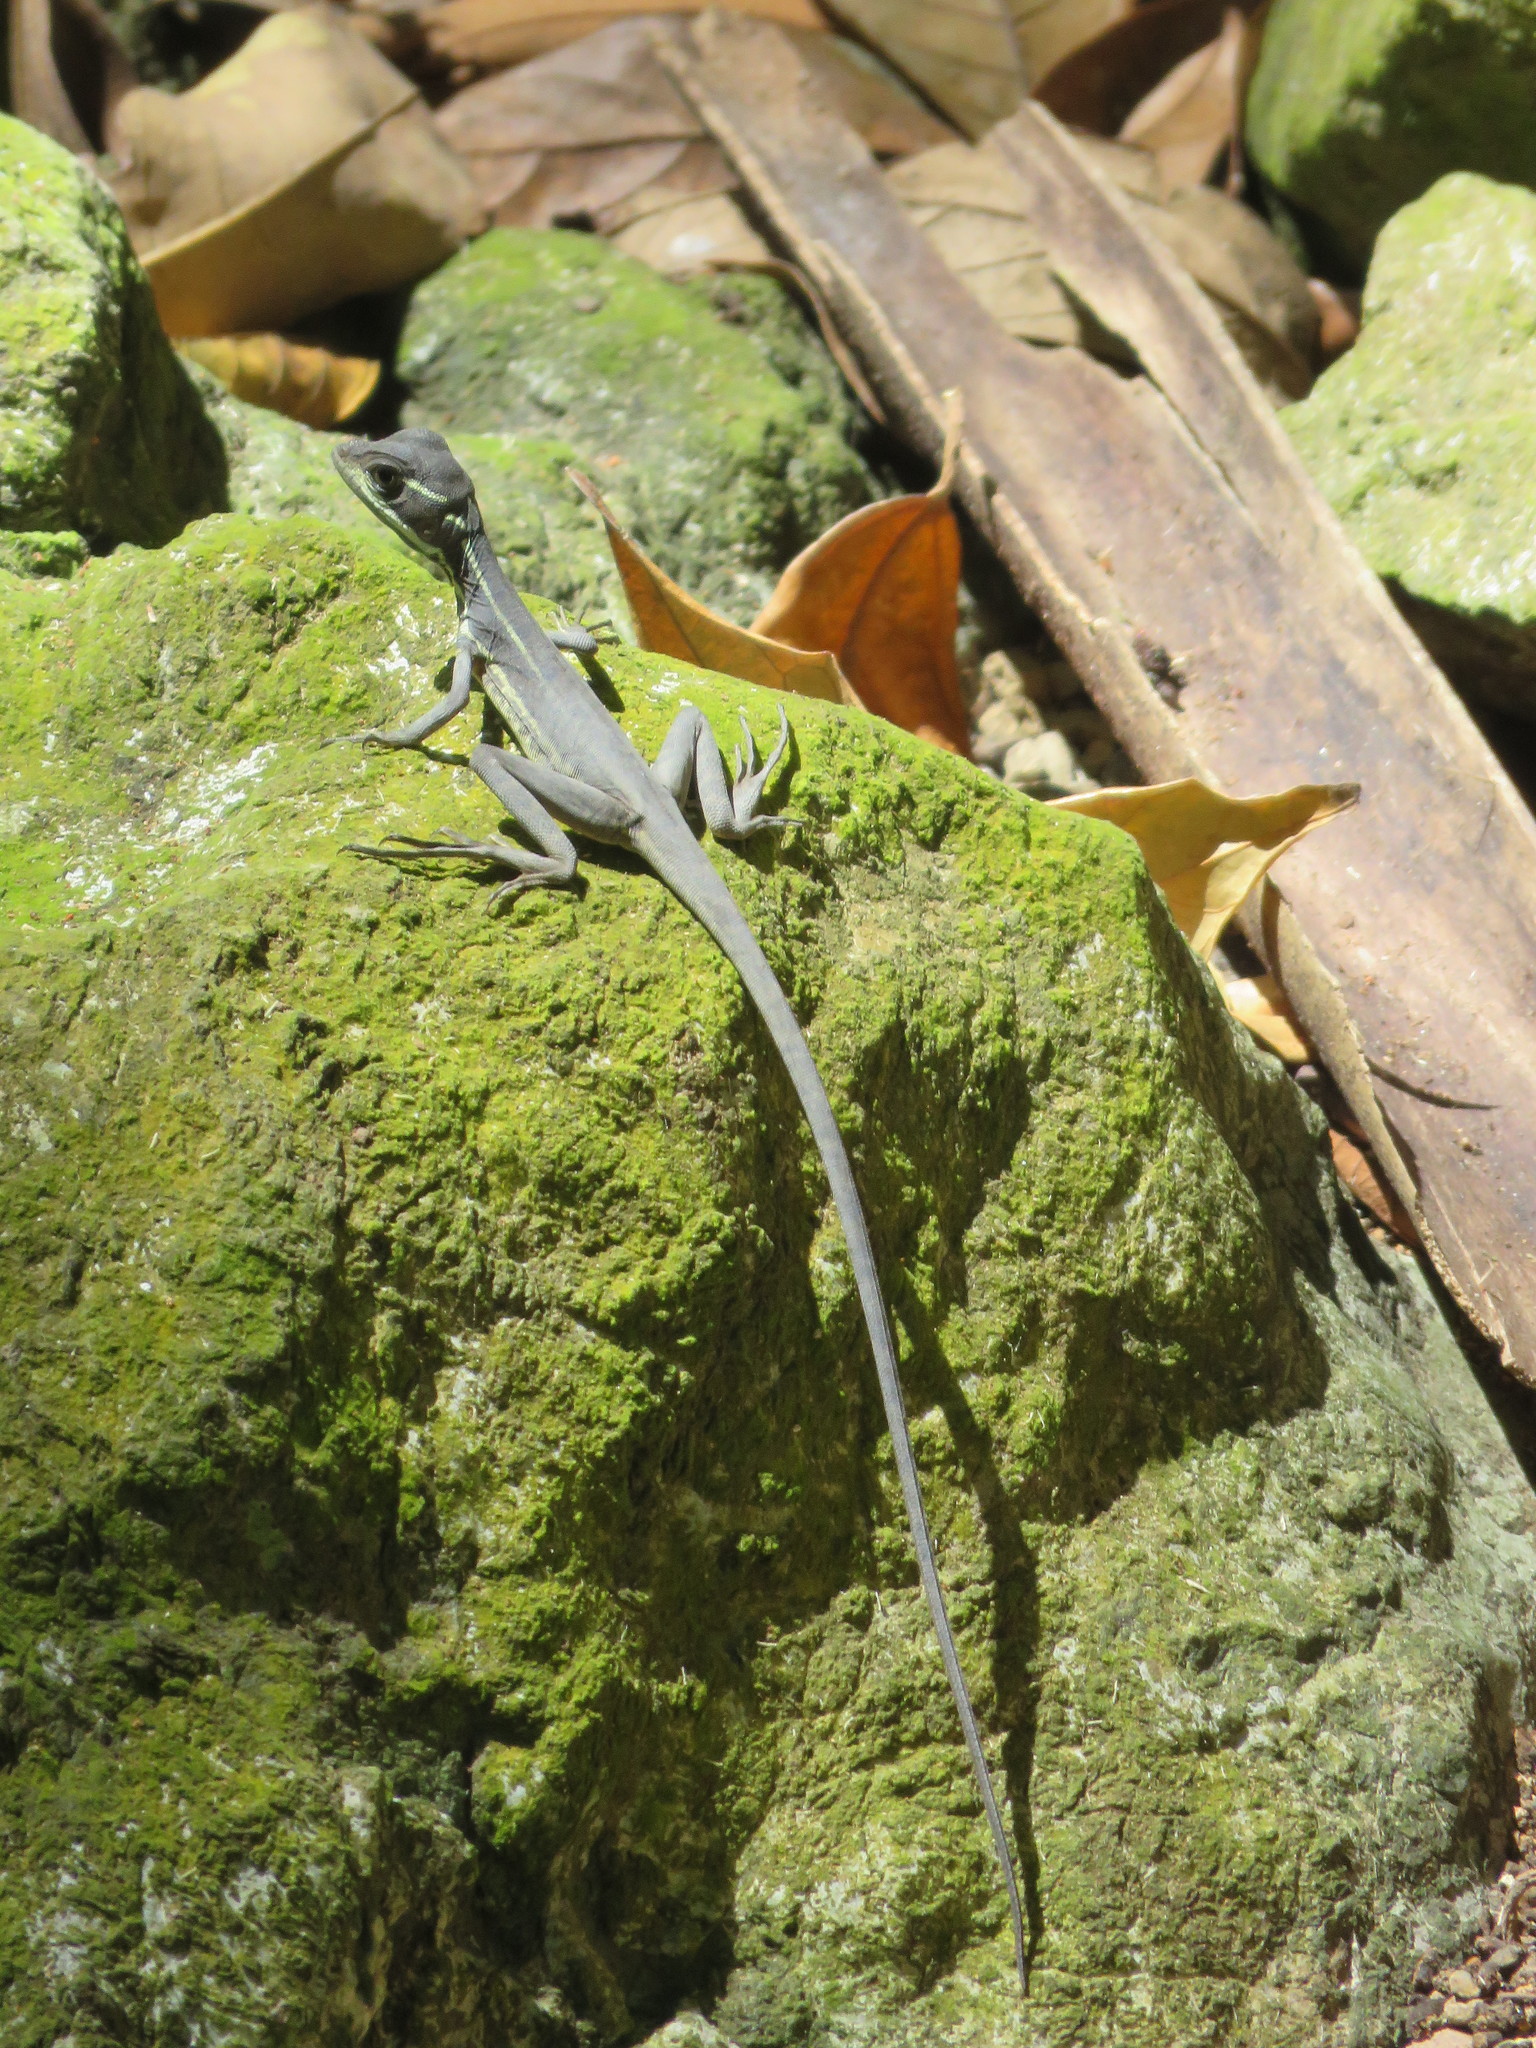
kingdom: Animalia
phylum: Chordata
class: Squamata
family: Corytophanidae
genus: Basiliscus
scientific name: Basiliscus basiliscus
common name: Common basilisk
